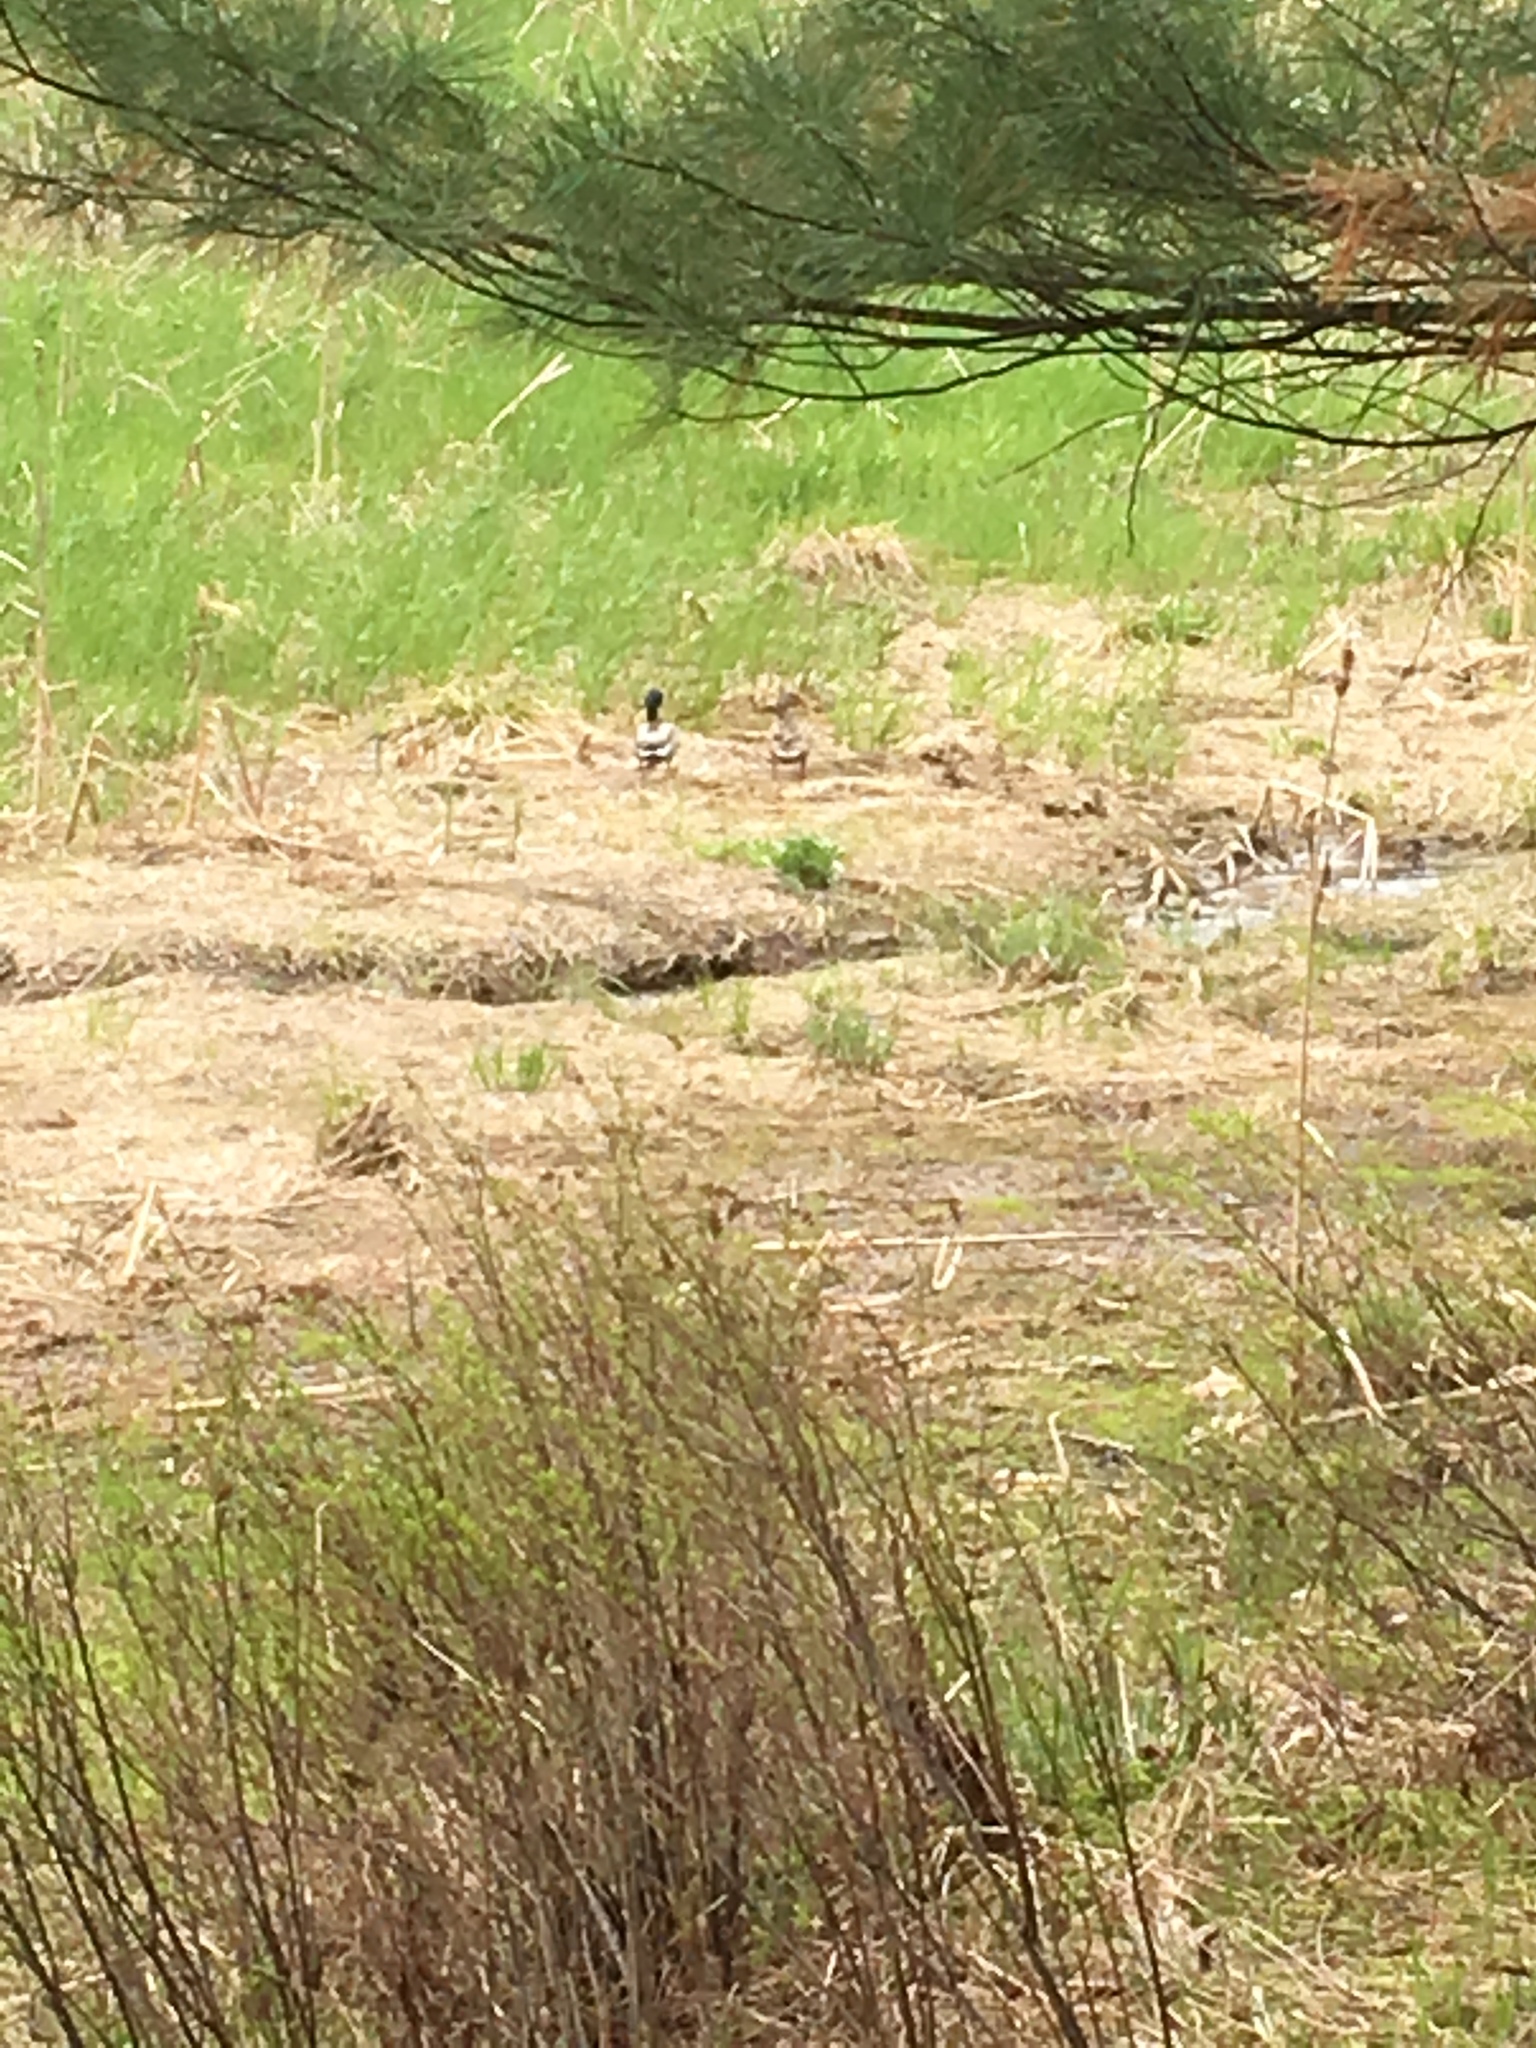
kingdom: Animalia
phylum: Chordata
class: Aves
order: Anseriformes
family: Anatidae
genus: Anas
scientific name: Anas platyrhynchos
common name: Mallard
